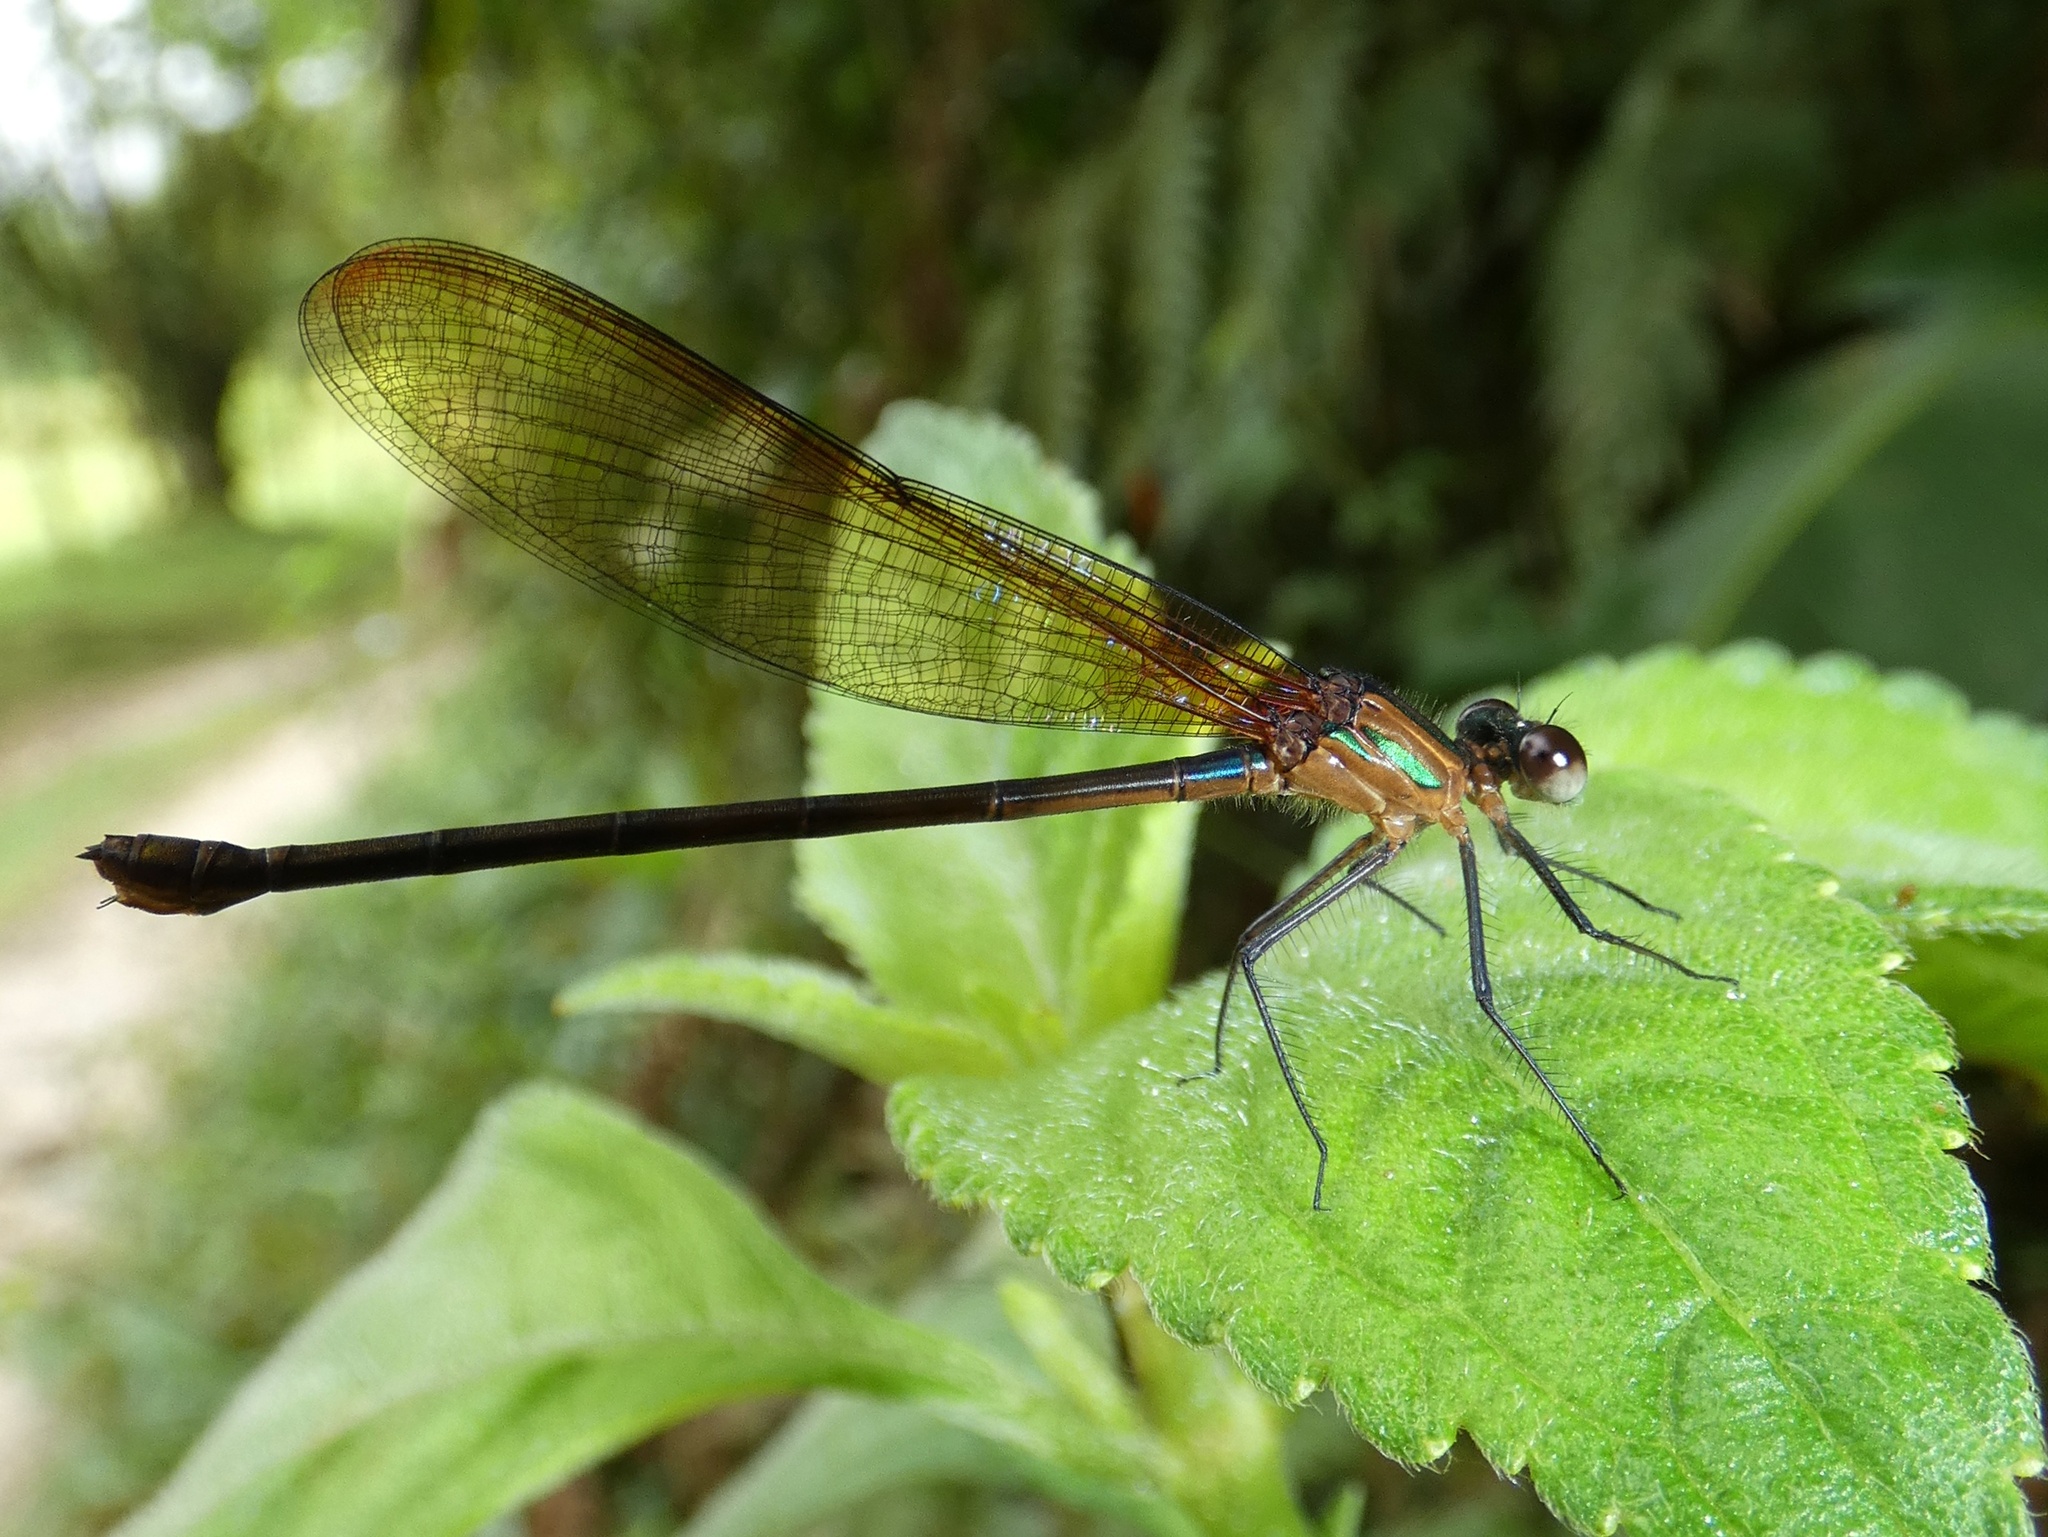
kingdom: Animalia
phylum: Arthropoda
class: Insecta
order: Odonata
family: Calopterygidae
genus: Hetaerina
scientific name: Hetaerina cruentata
